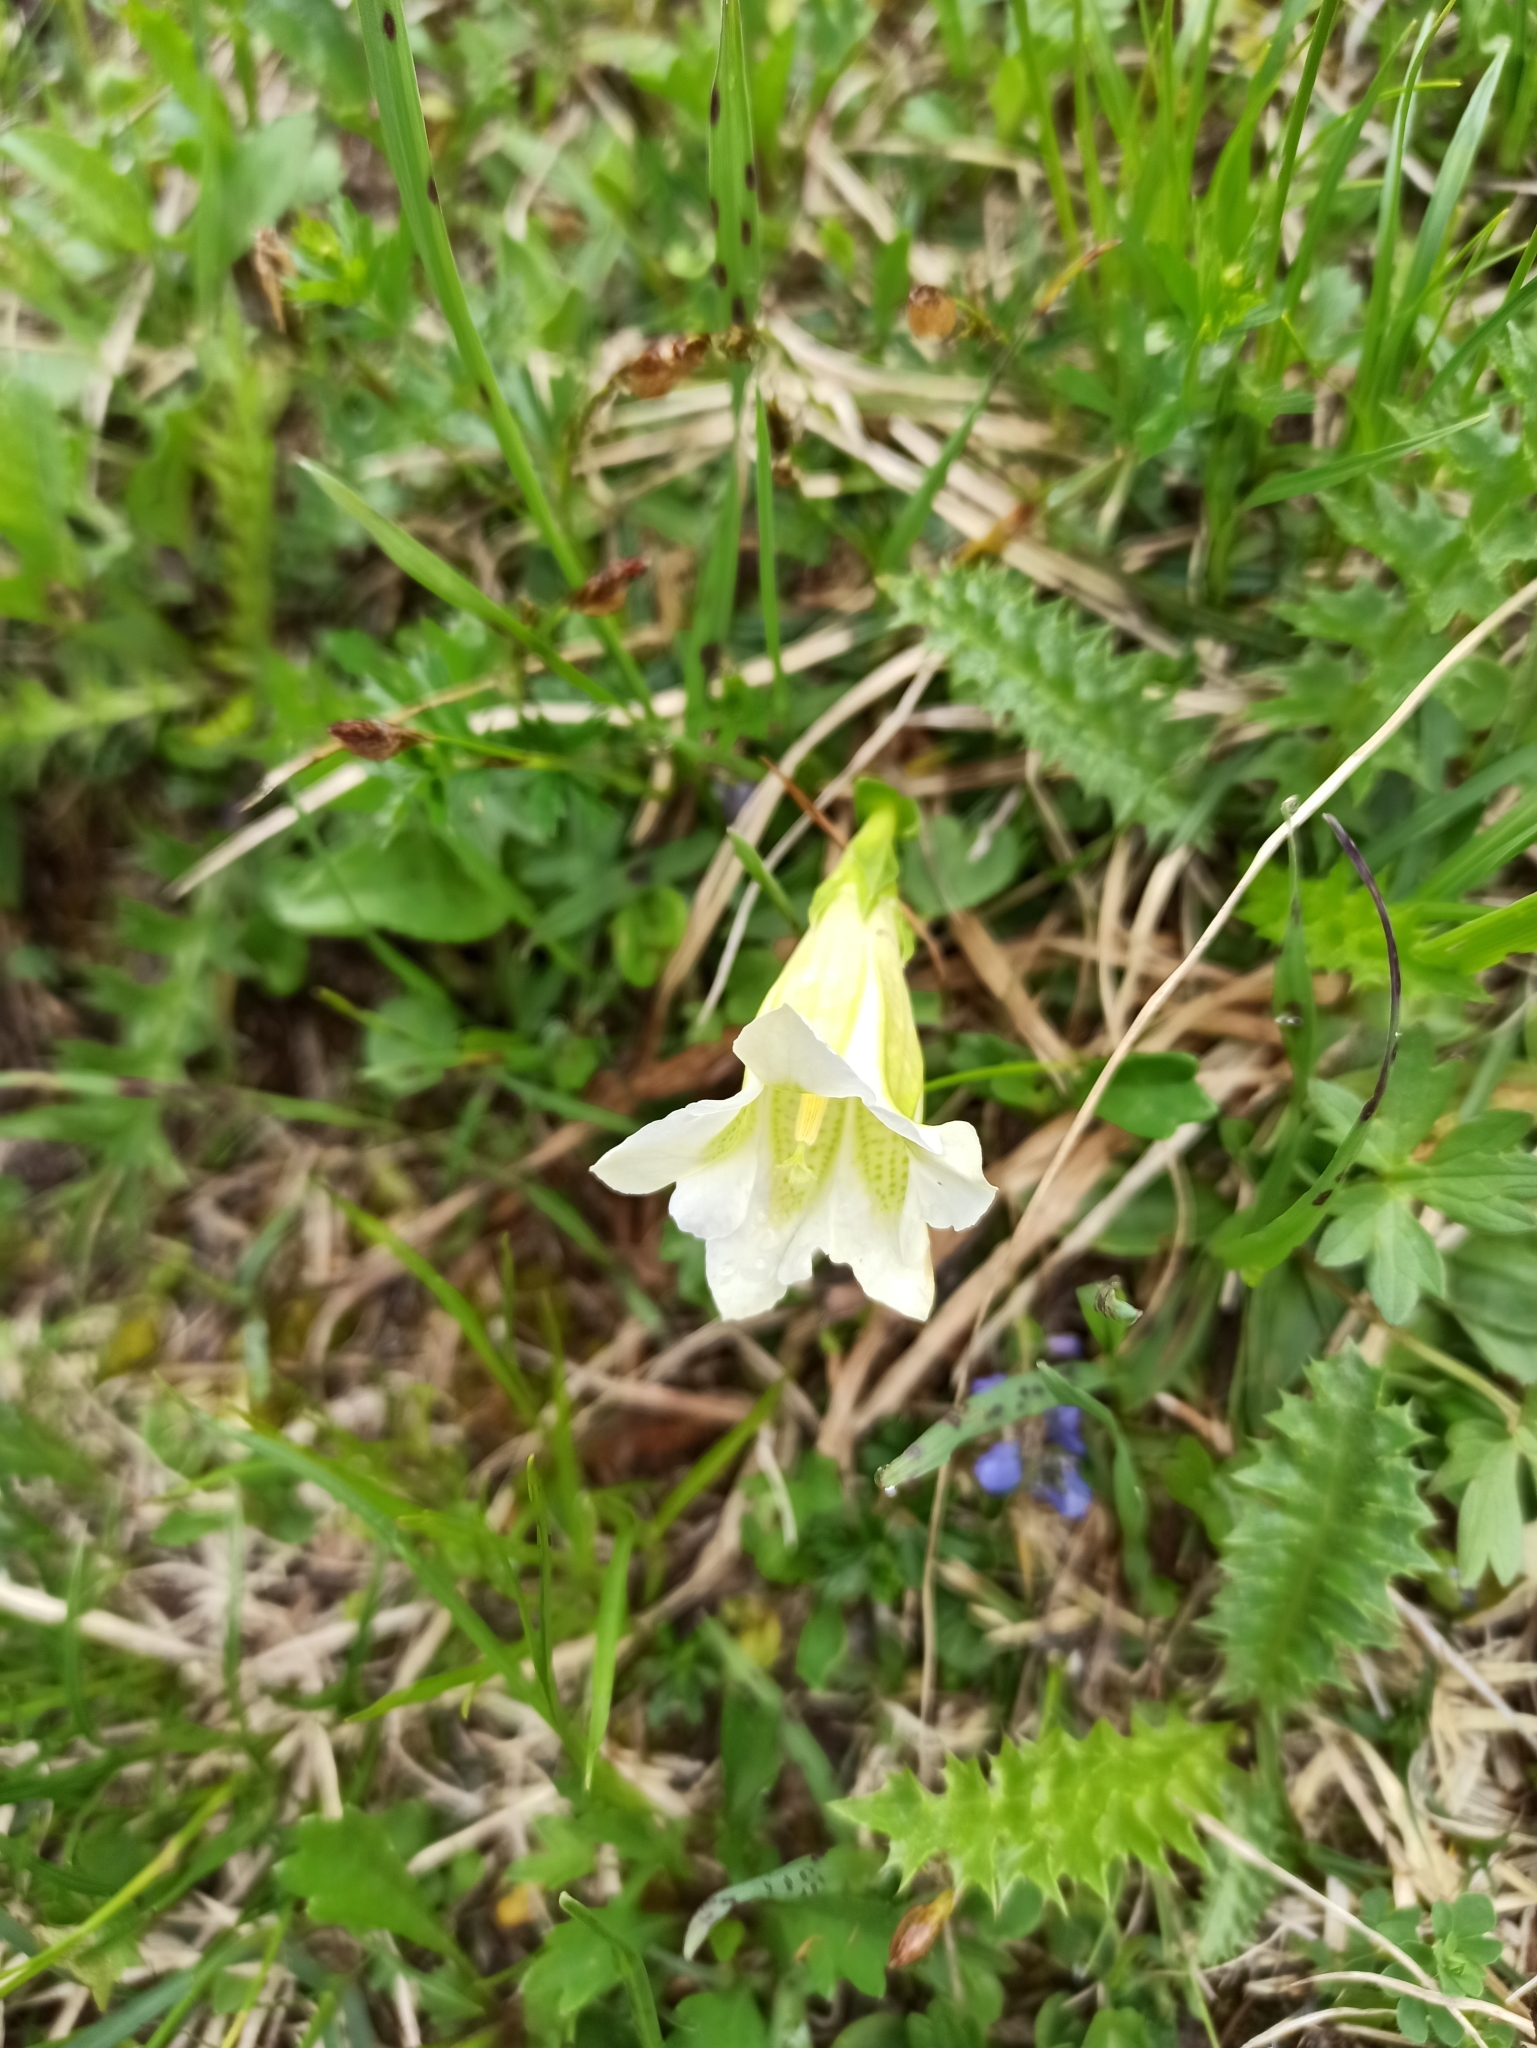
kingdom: Plantae
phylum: Tracheophyta
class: Magnoliopsida
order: Gentianales
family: Gentianaceae
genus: Gentiana
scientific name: Gentiana clusii
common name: Trumpet gentian
